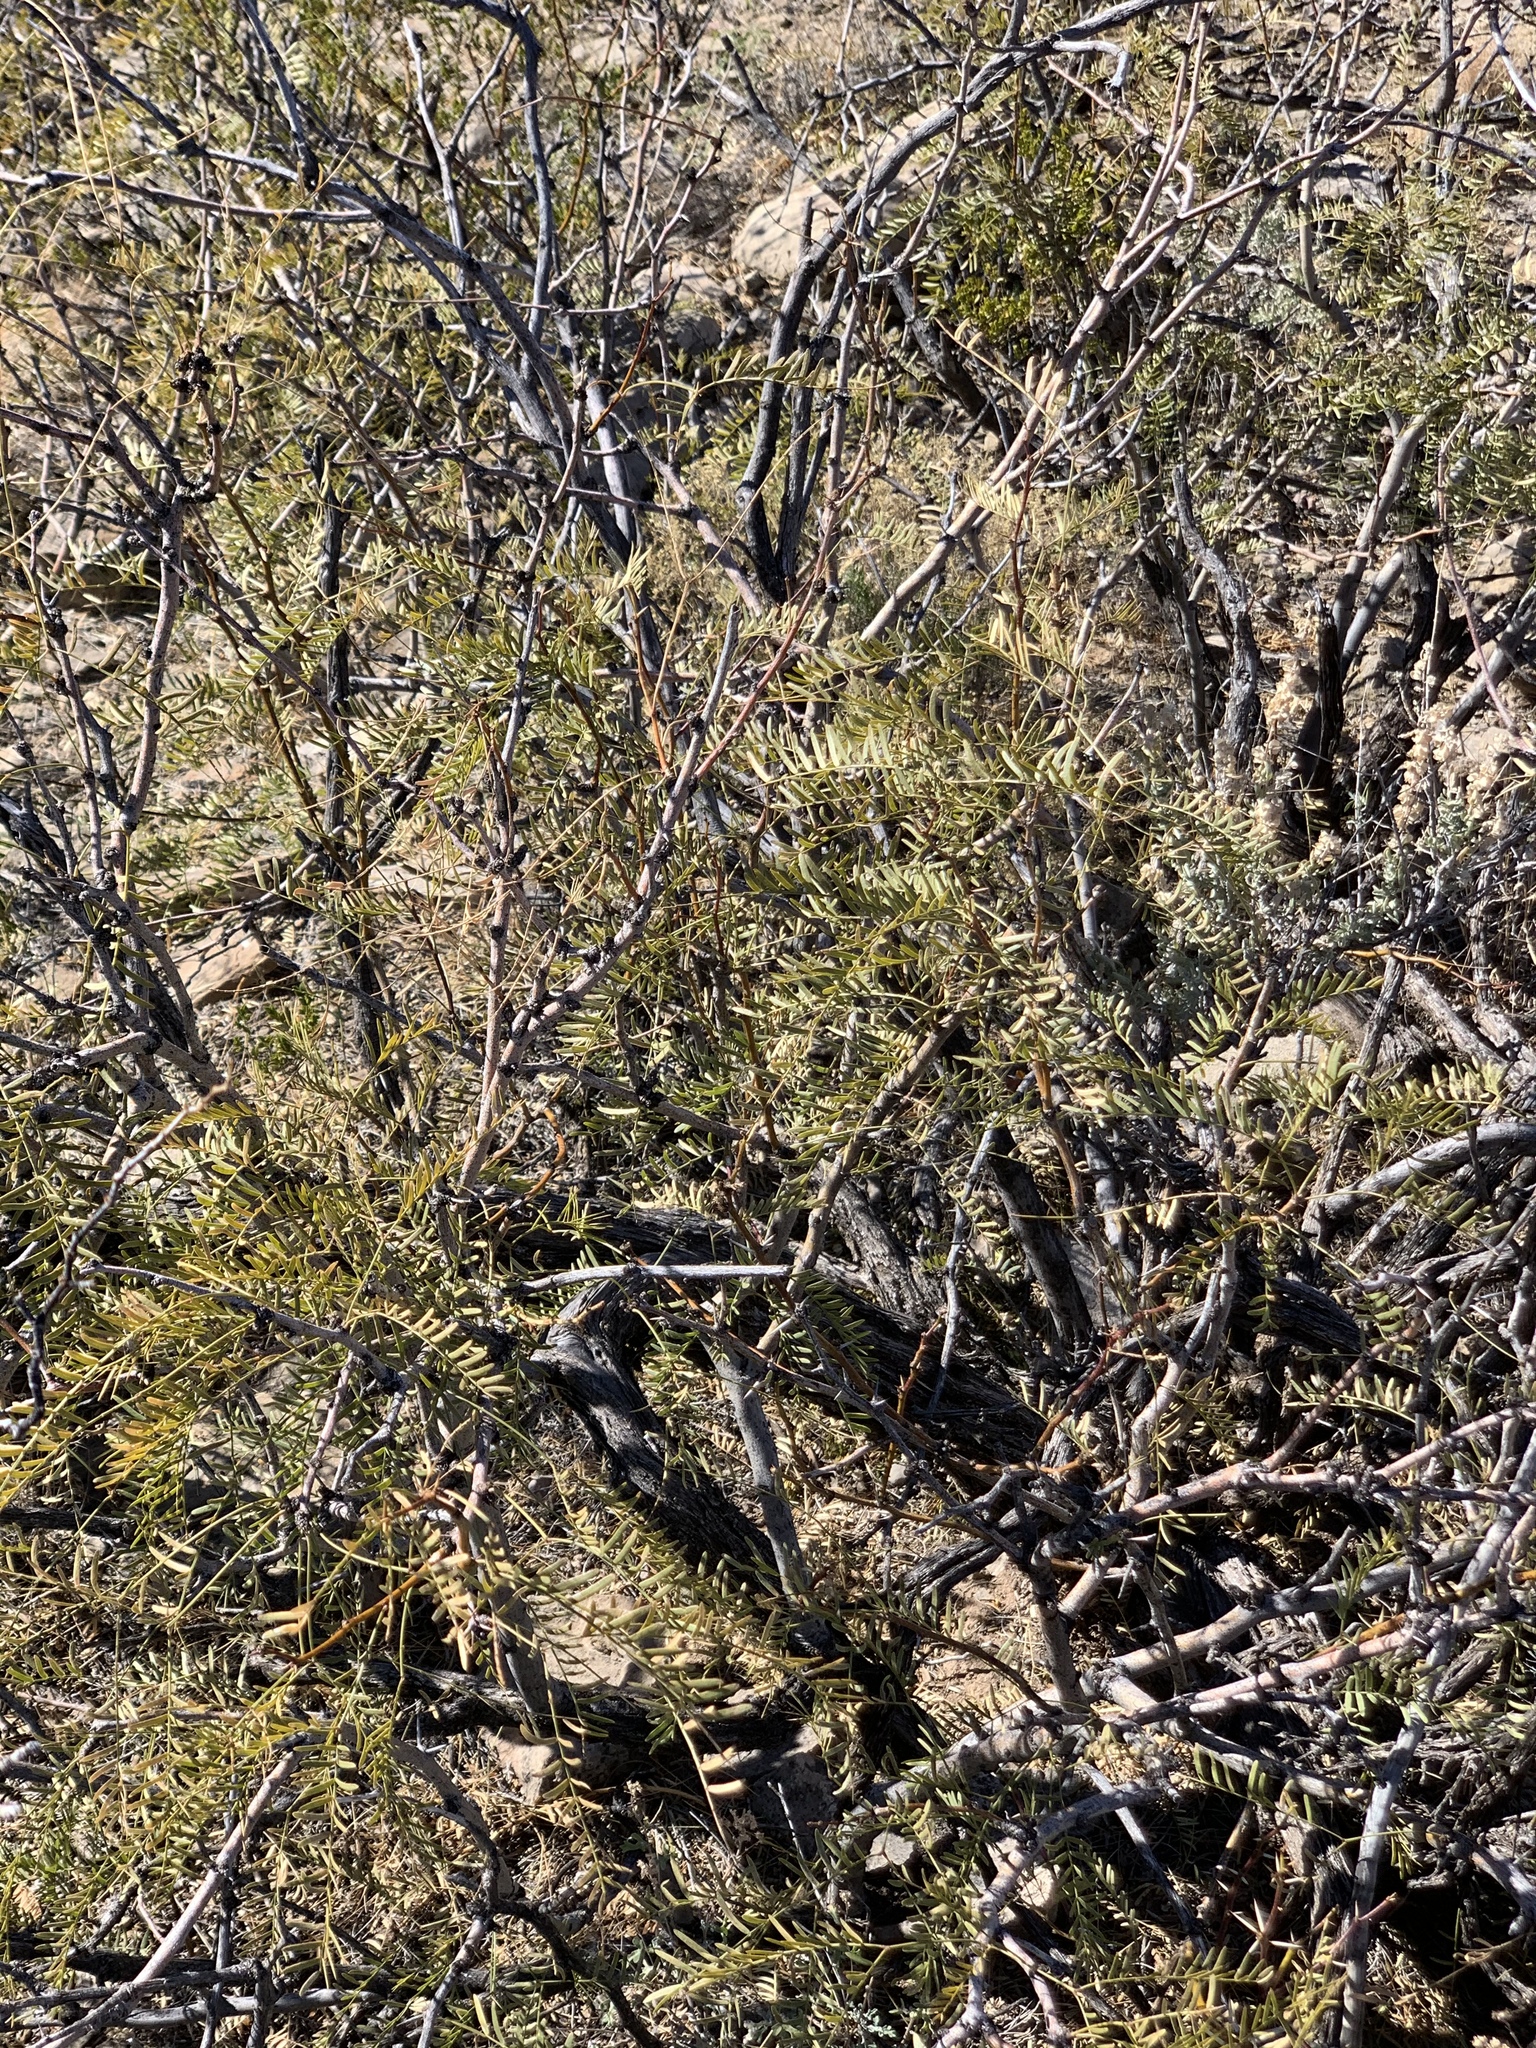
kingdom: Plantae
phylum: Tracheophyta
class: Magnoliopsida
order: Fabales
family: Fabaceae
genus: Prosopis
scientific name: Prosopis glandulosa
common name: Honey mesquite
